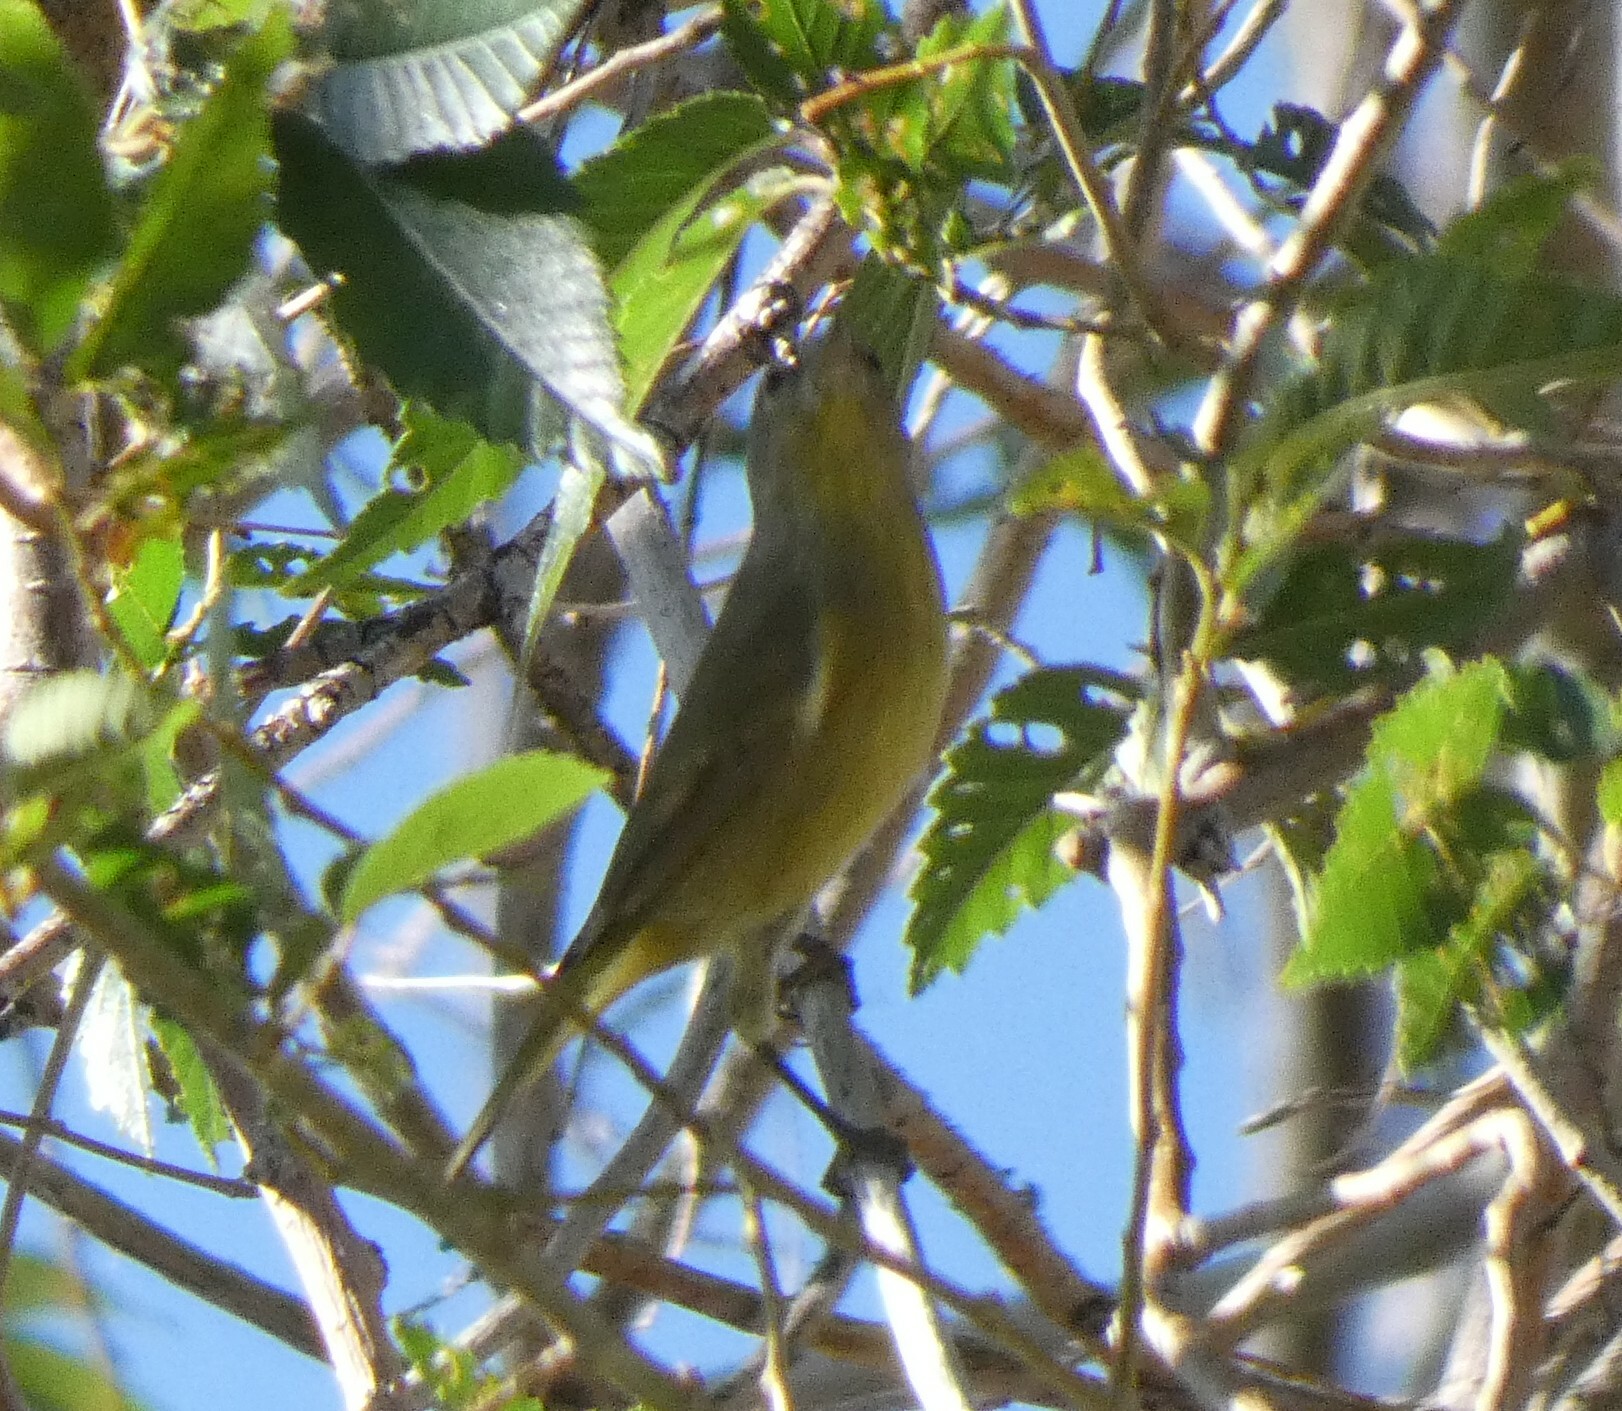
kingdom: Animalia
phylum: Chordata
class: Aves
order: Passeriformes
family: Parulidae
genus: Leiothlypis
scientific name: Leiothlypis celata
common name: Orange-crowned warbler
